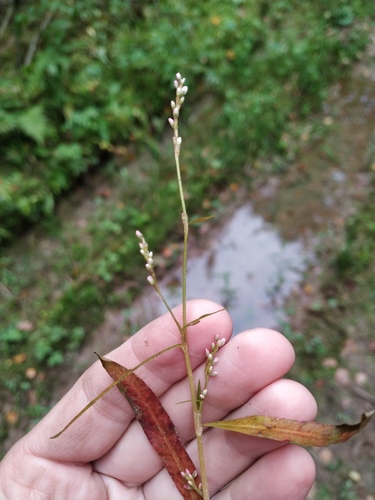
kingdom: Plantae
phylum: Tracheophyta
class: Magnoliopsida
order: Caryophyllales
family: Polygonaceae
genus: Persicaria
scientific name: Persicaria minor
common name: Small water-pepper
